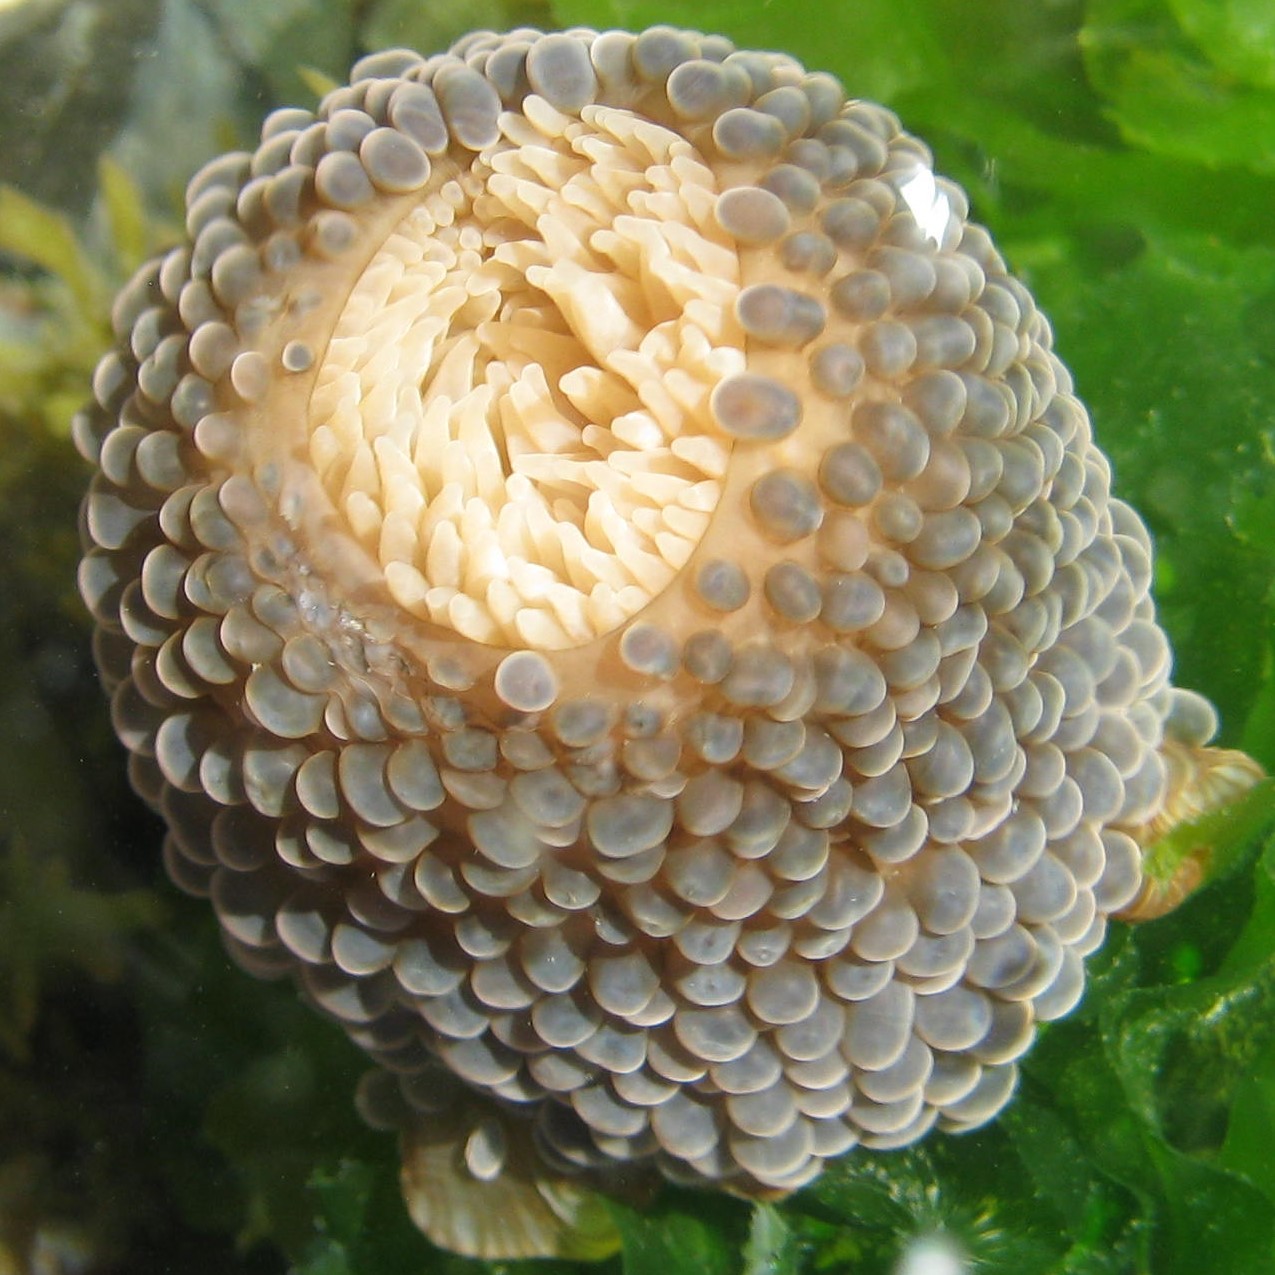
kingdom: Animalia
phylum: Cnidaria
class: Anthozoa
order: Actiniaria
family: Actiniidae
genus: Phlyctenactis
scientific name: Phlyctenactis tuberculosa
